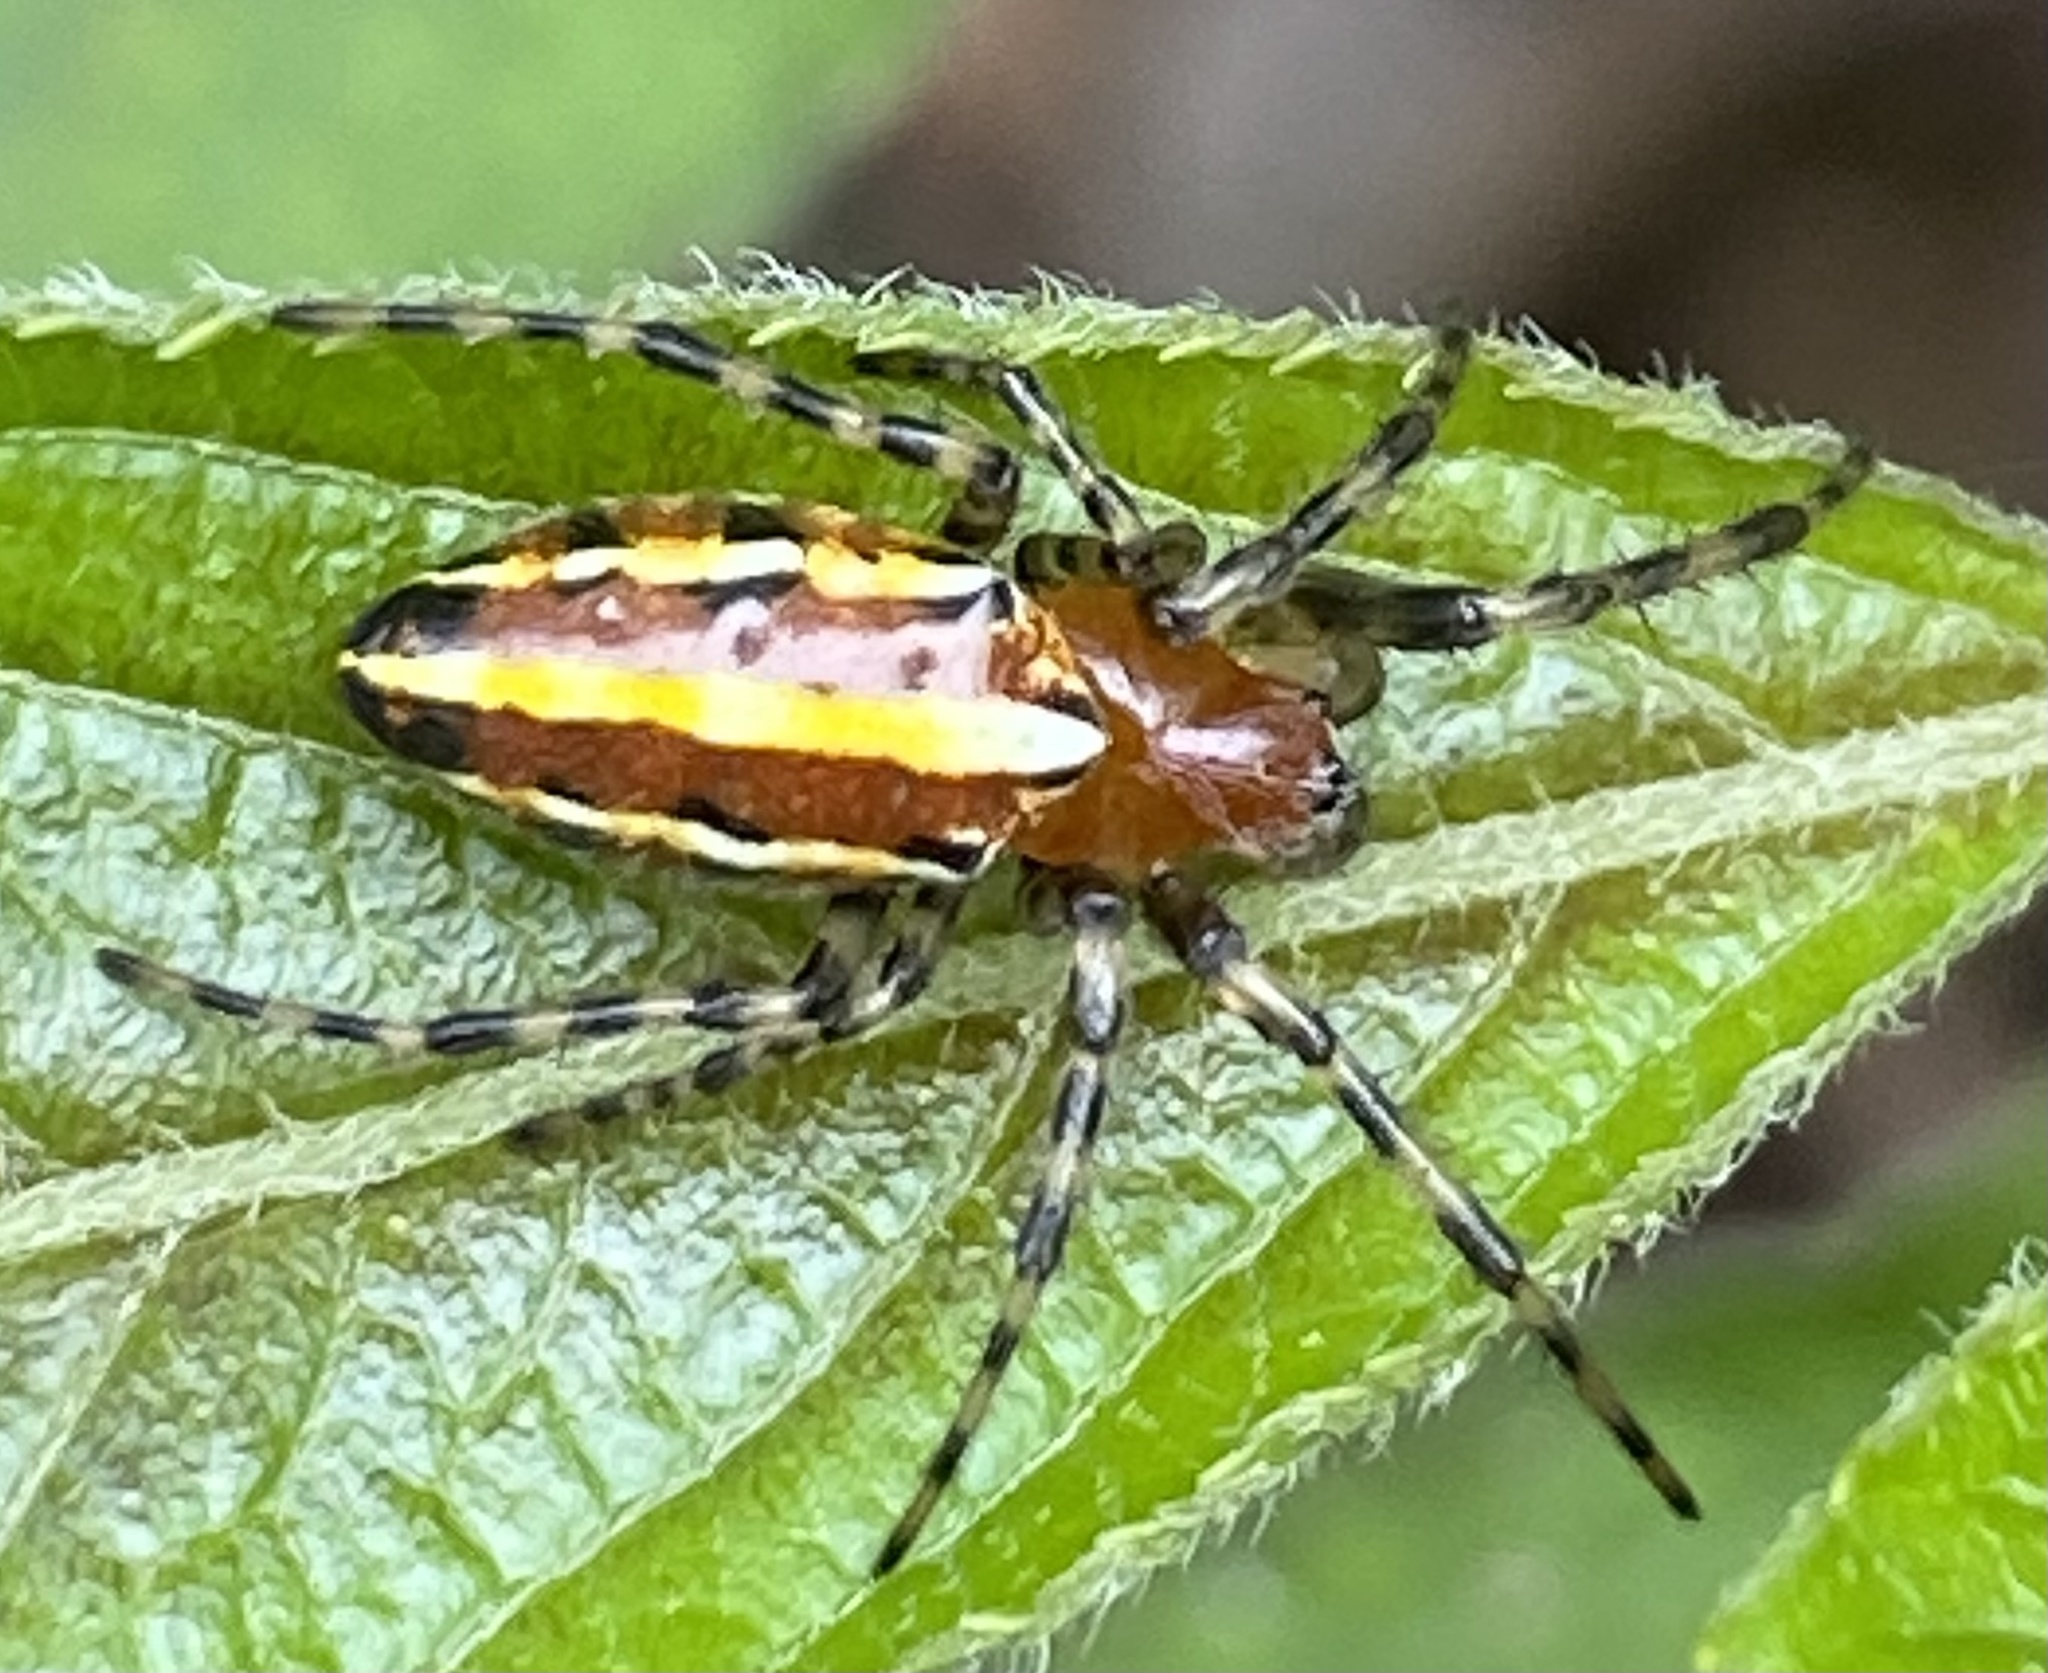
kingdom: Animalia
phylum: Arthropoda
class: Arachnida
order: Araneae
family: Araneidae
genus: Alpaida
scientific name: Alpaida grayi
